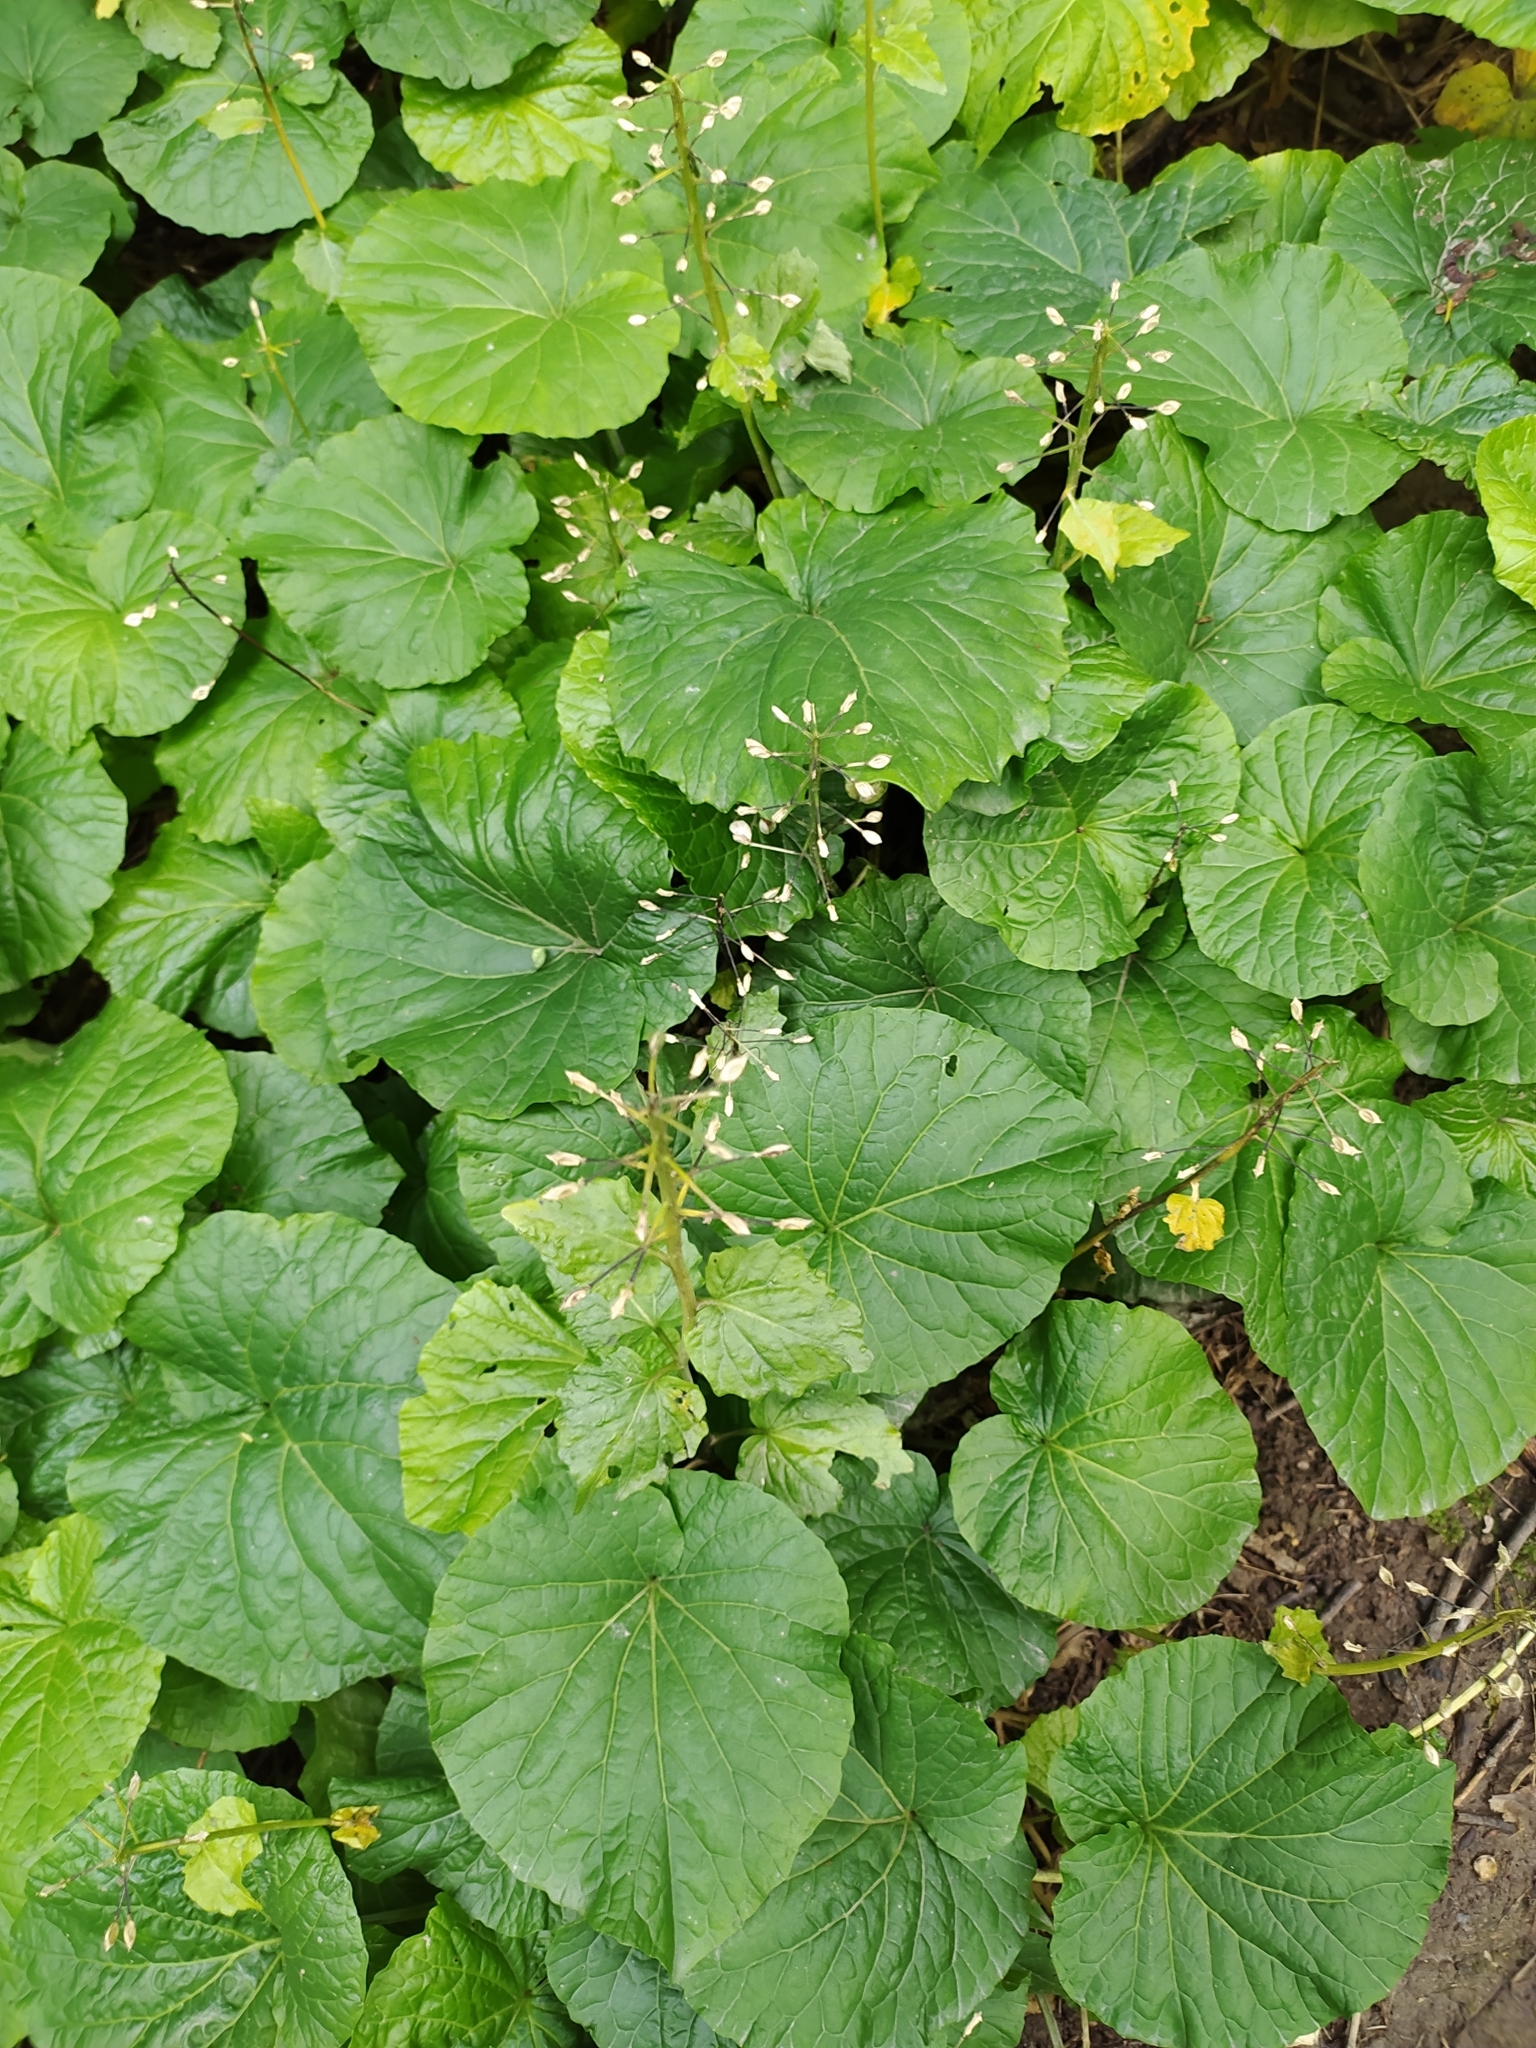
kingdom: Plantae
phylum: Tracheophyta
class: Magnoliopsida
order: Brassicales
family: Brassicaceae
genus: Pachyphragma
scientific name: Pachyphragma macrophyllum
